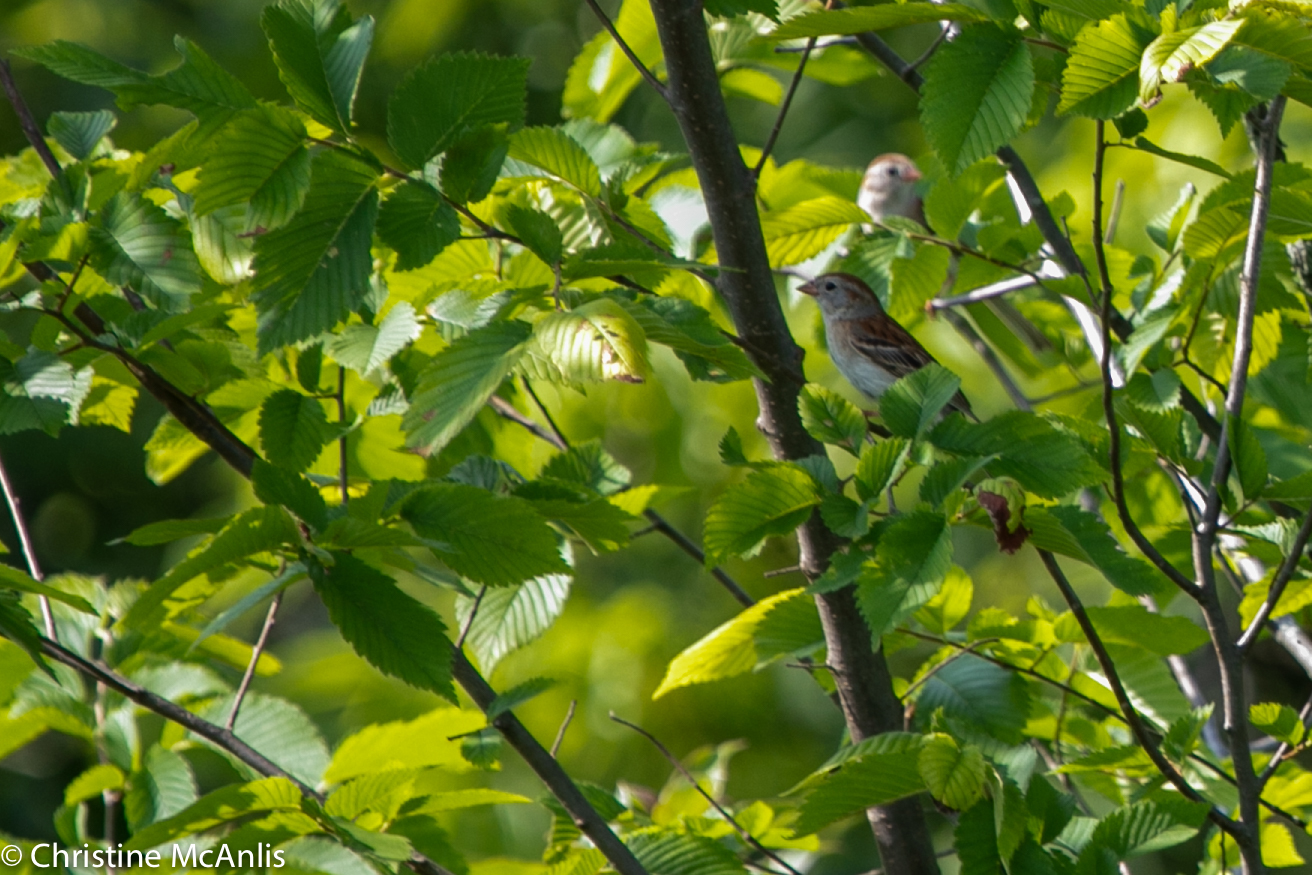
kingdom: Animalia
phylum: Chordata
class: Aves
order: Passeriformes
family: Passerellidae
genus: Spizella
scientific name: Spizella pusilla
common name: Field sparrow
